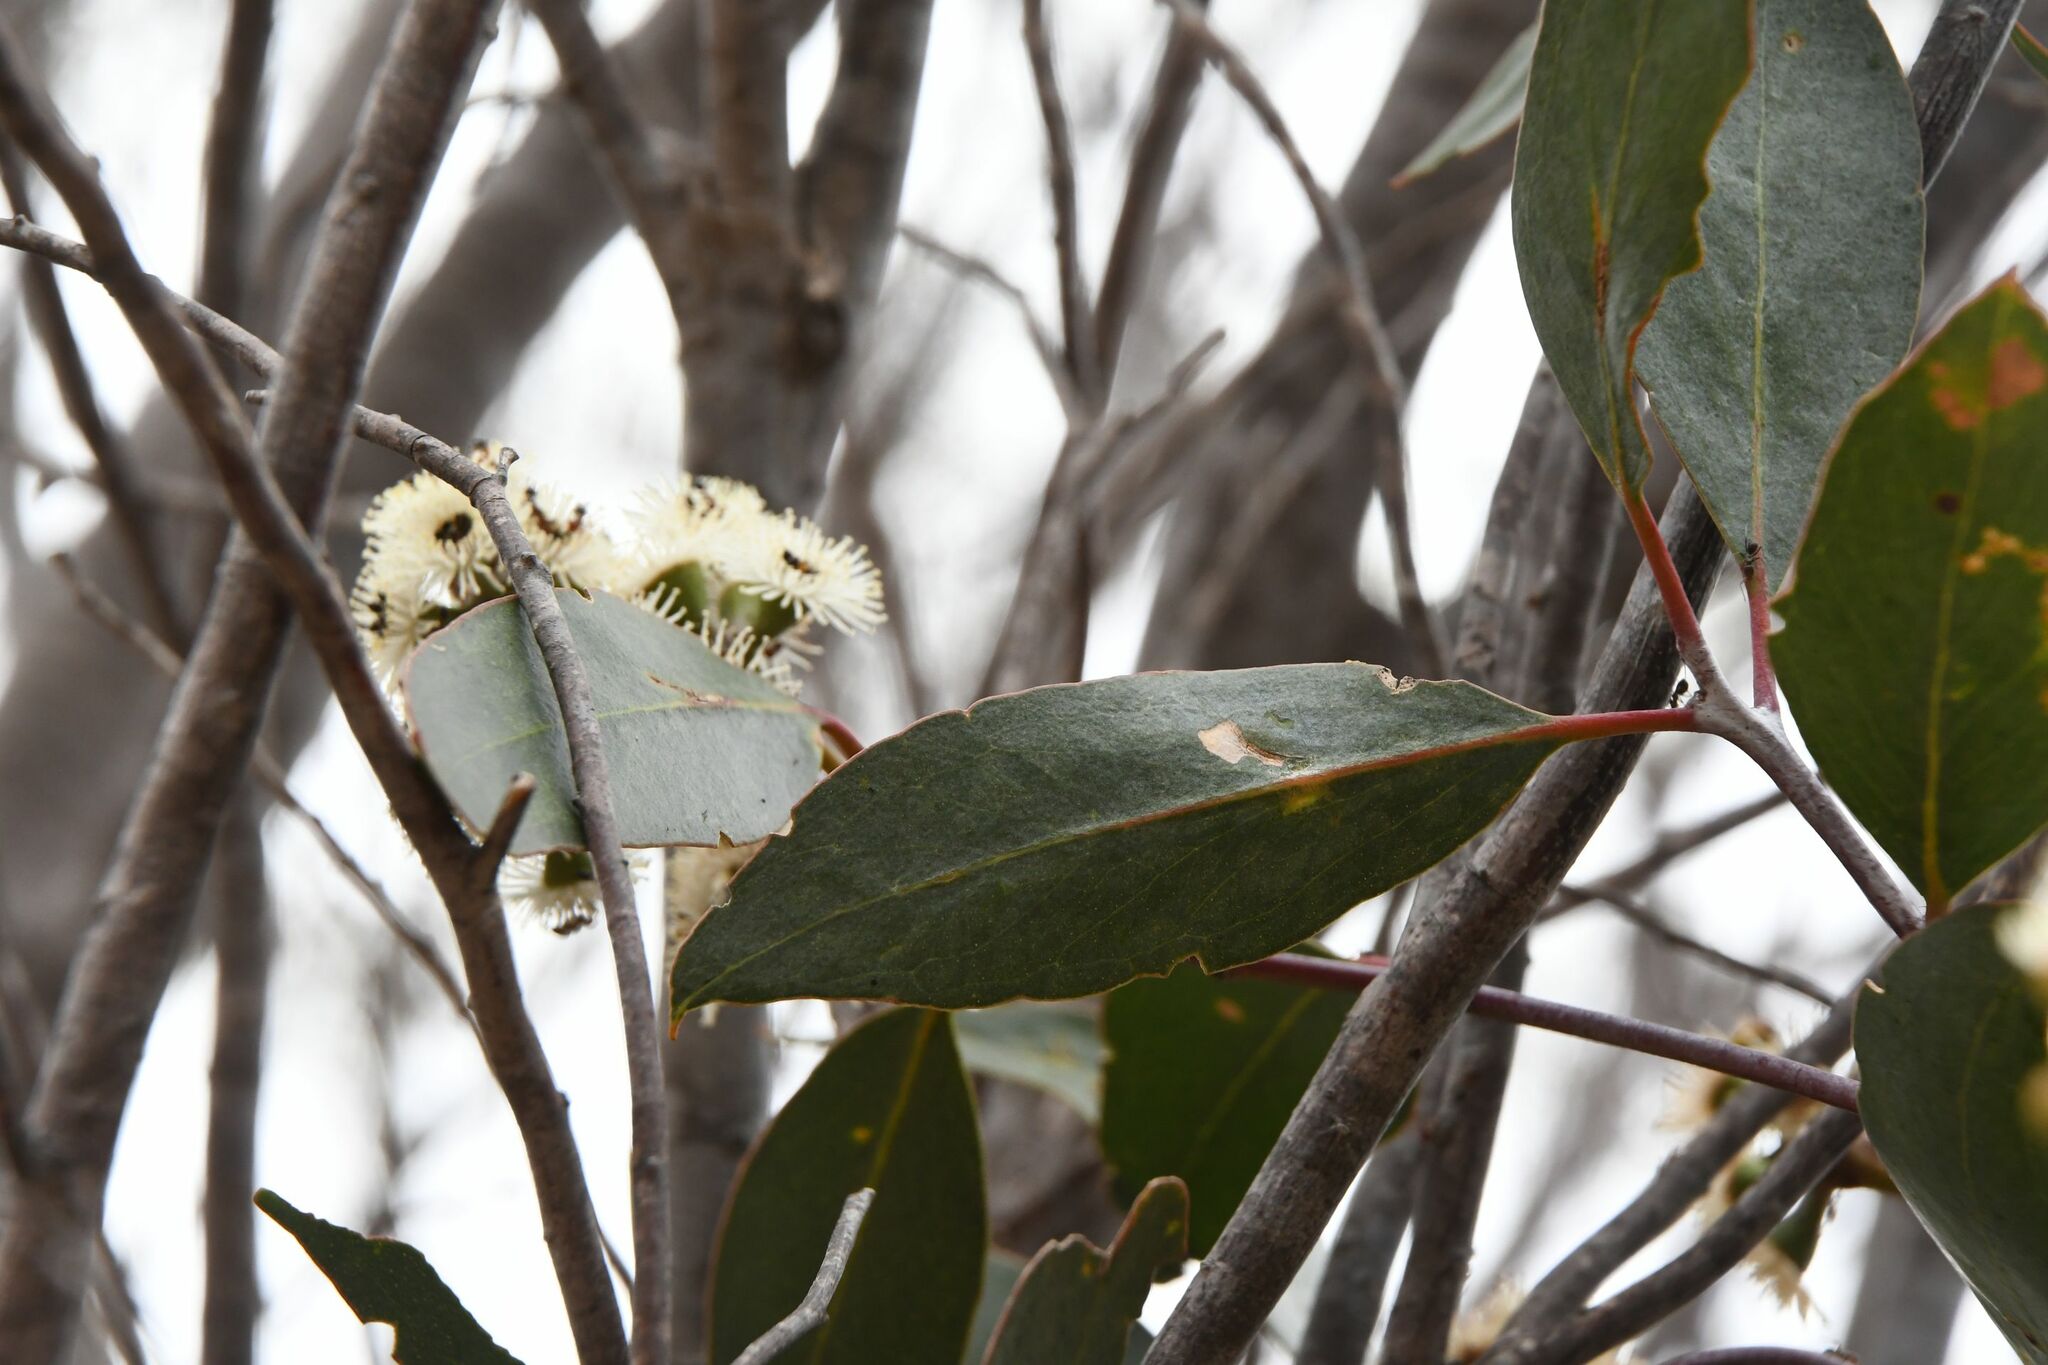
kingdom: Plantae
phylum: Tracheophyta
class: Magnoliopsida
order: Myrtales
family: Myrtaceae
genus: Eucalyptus
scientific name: Eucalyptus loxophleba
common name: York gum
